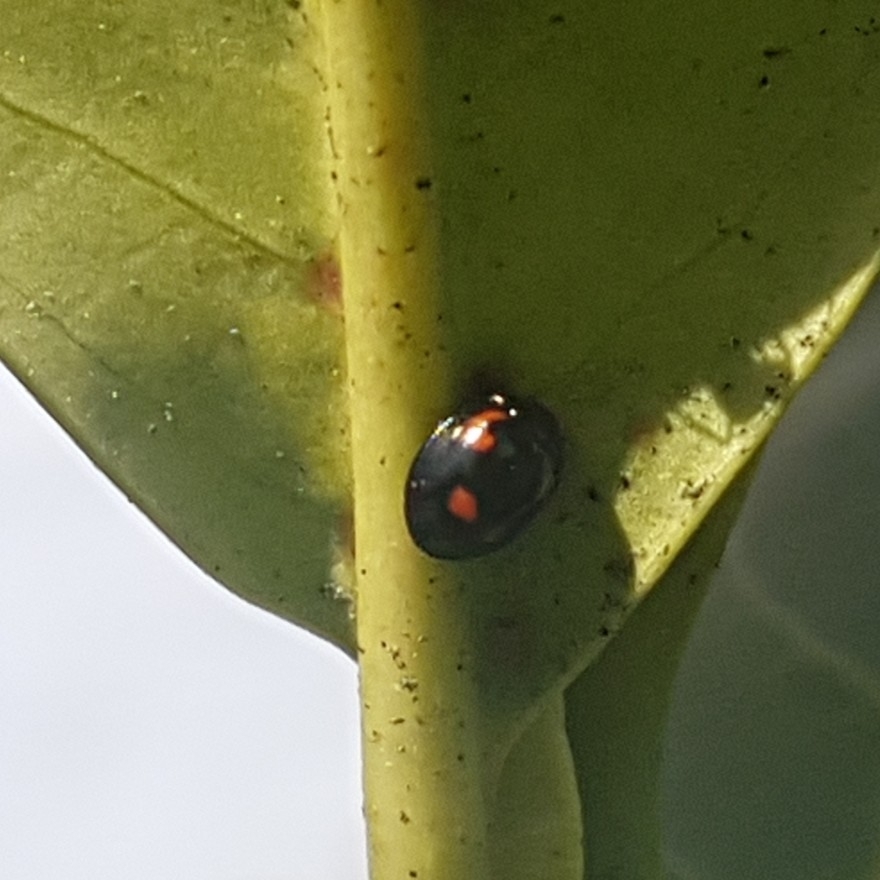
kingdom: Animalia
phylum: Arthropoda
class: Insecta
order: Coleoptera
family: Coccinellidae
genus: Brumus
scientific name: Brumus quadripustulatus
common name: Ladybird beetle
